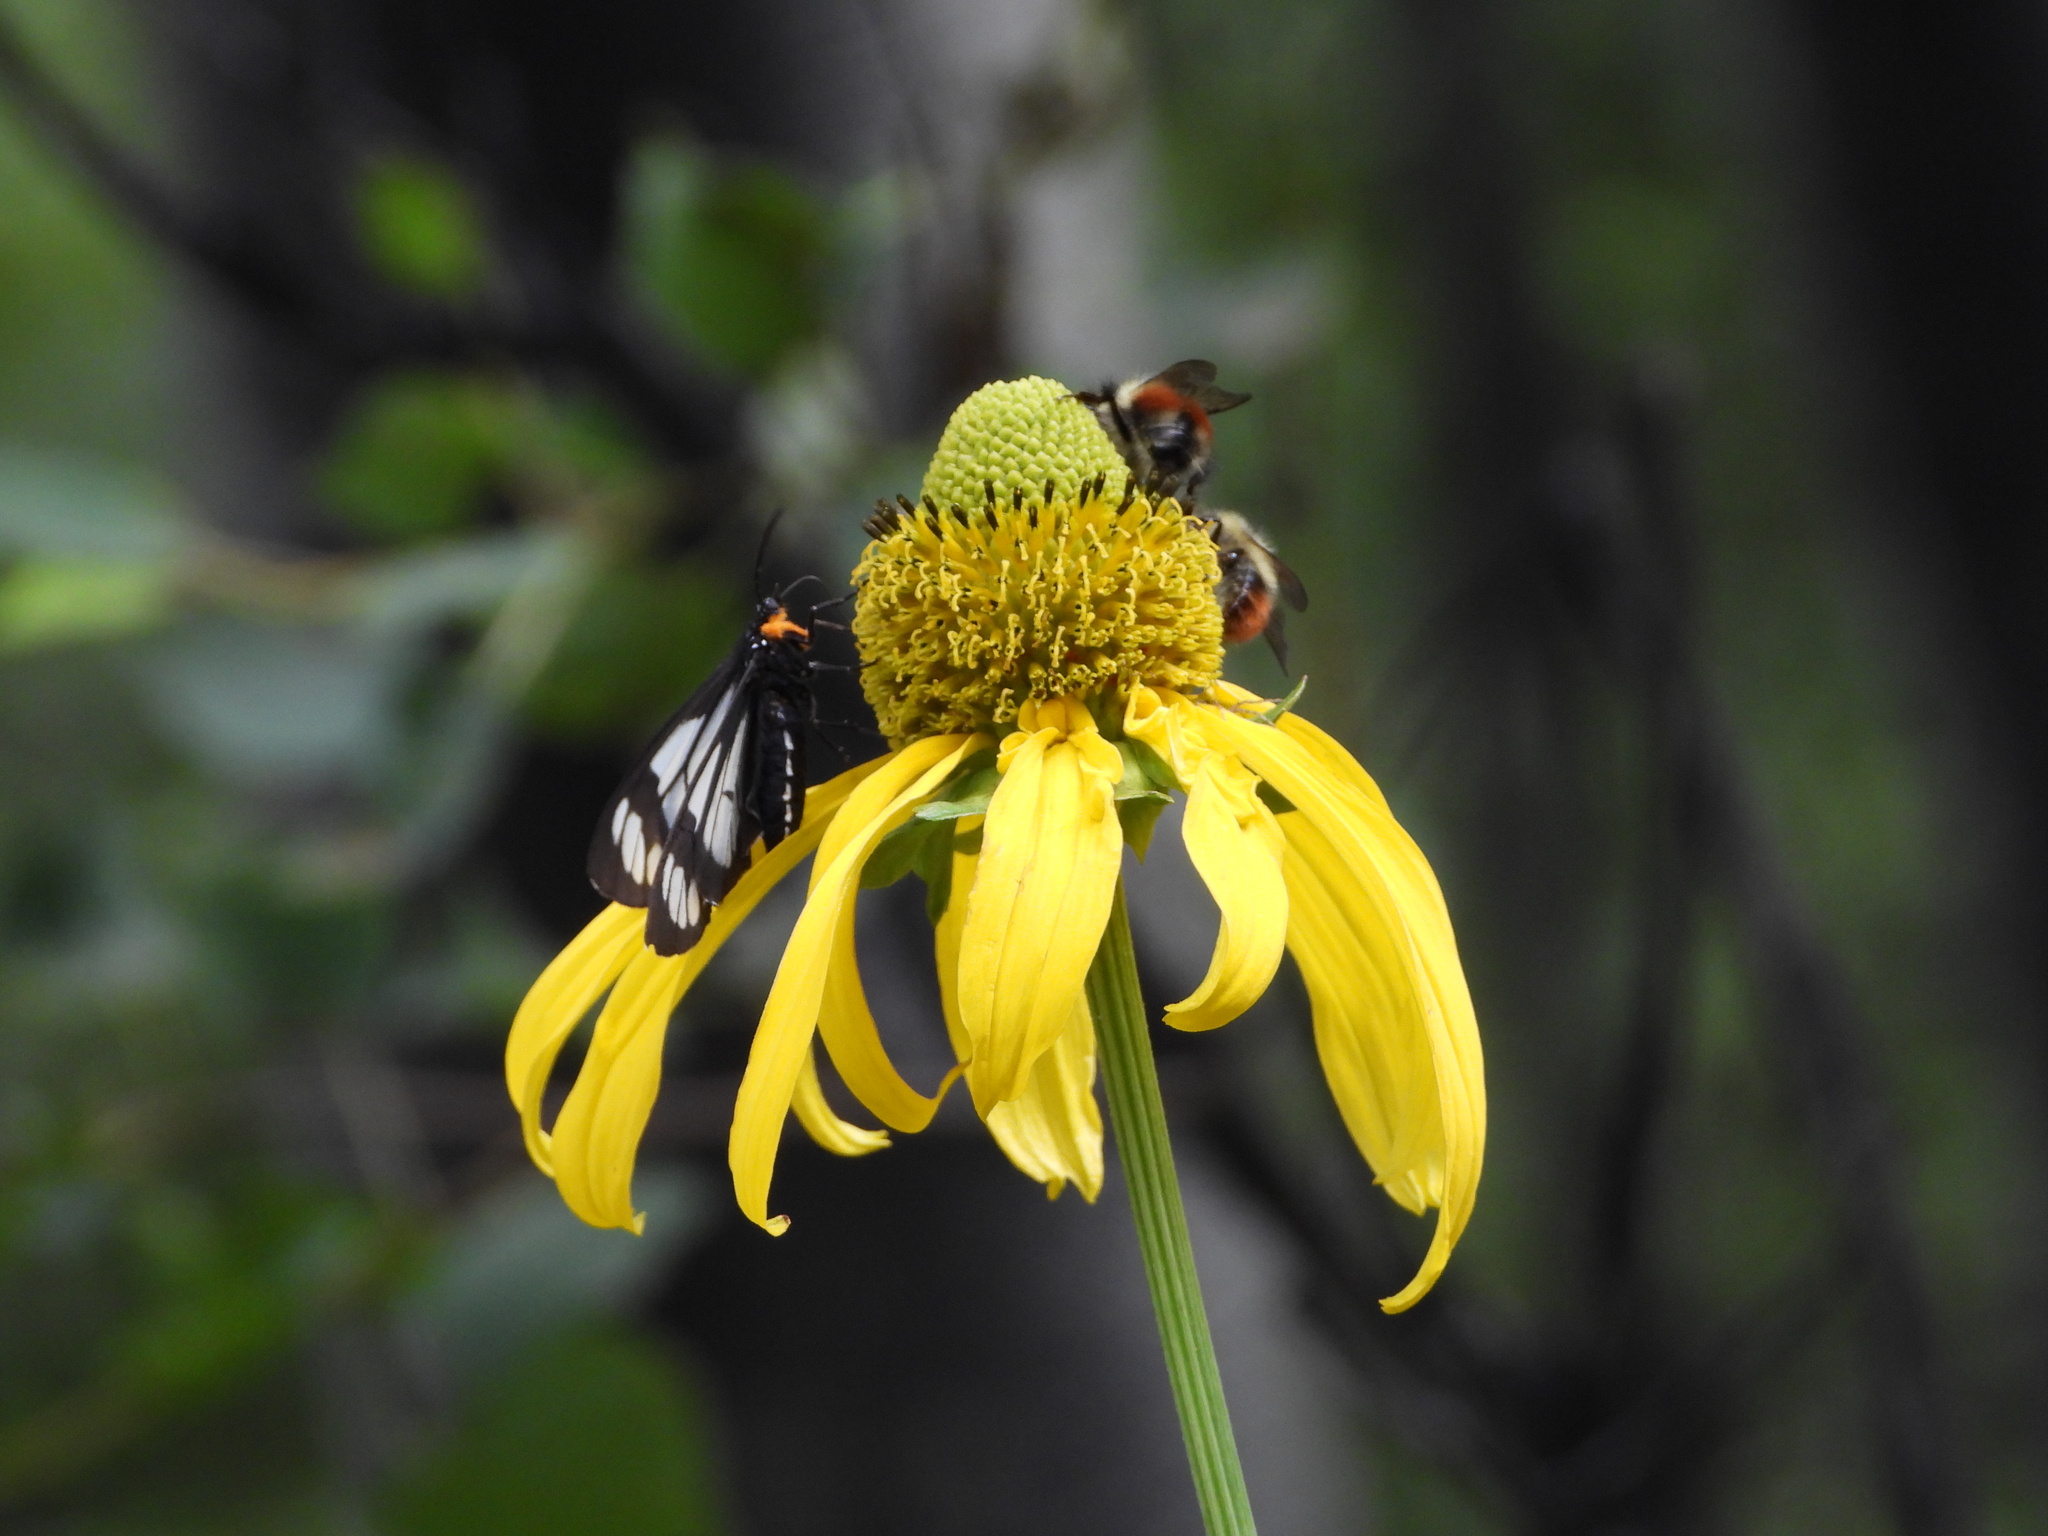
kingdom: Animalia
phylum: Arthropoda
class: Insecta
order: Lepidoptera
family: Erebidae
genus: Gnophaela
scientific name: Gnophaela vermiculata
